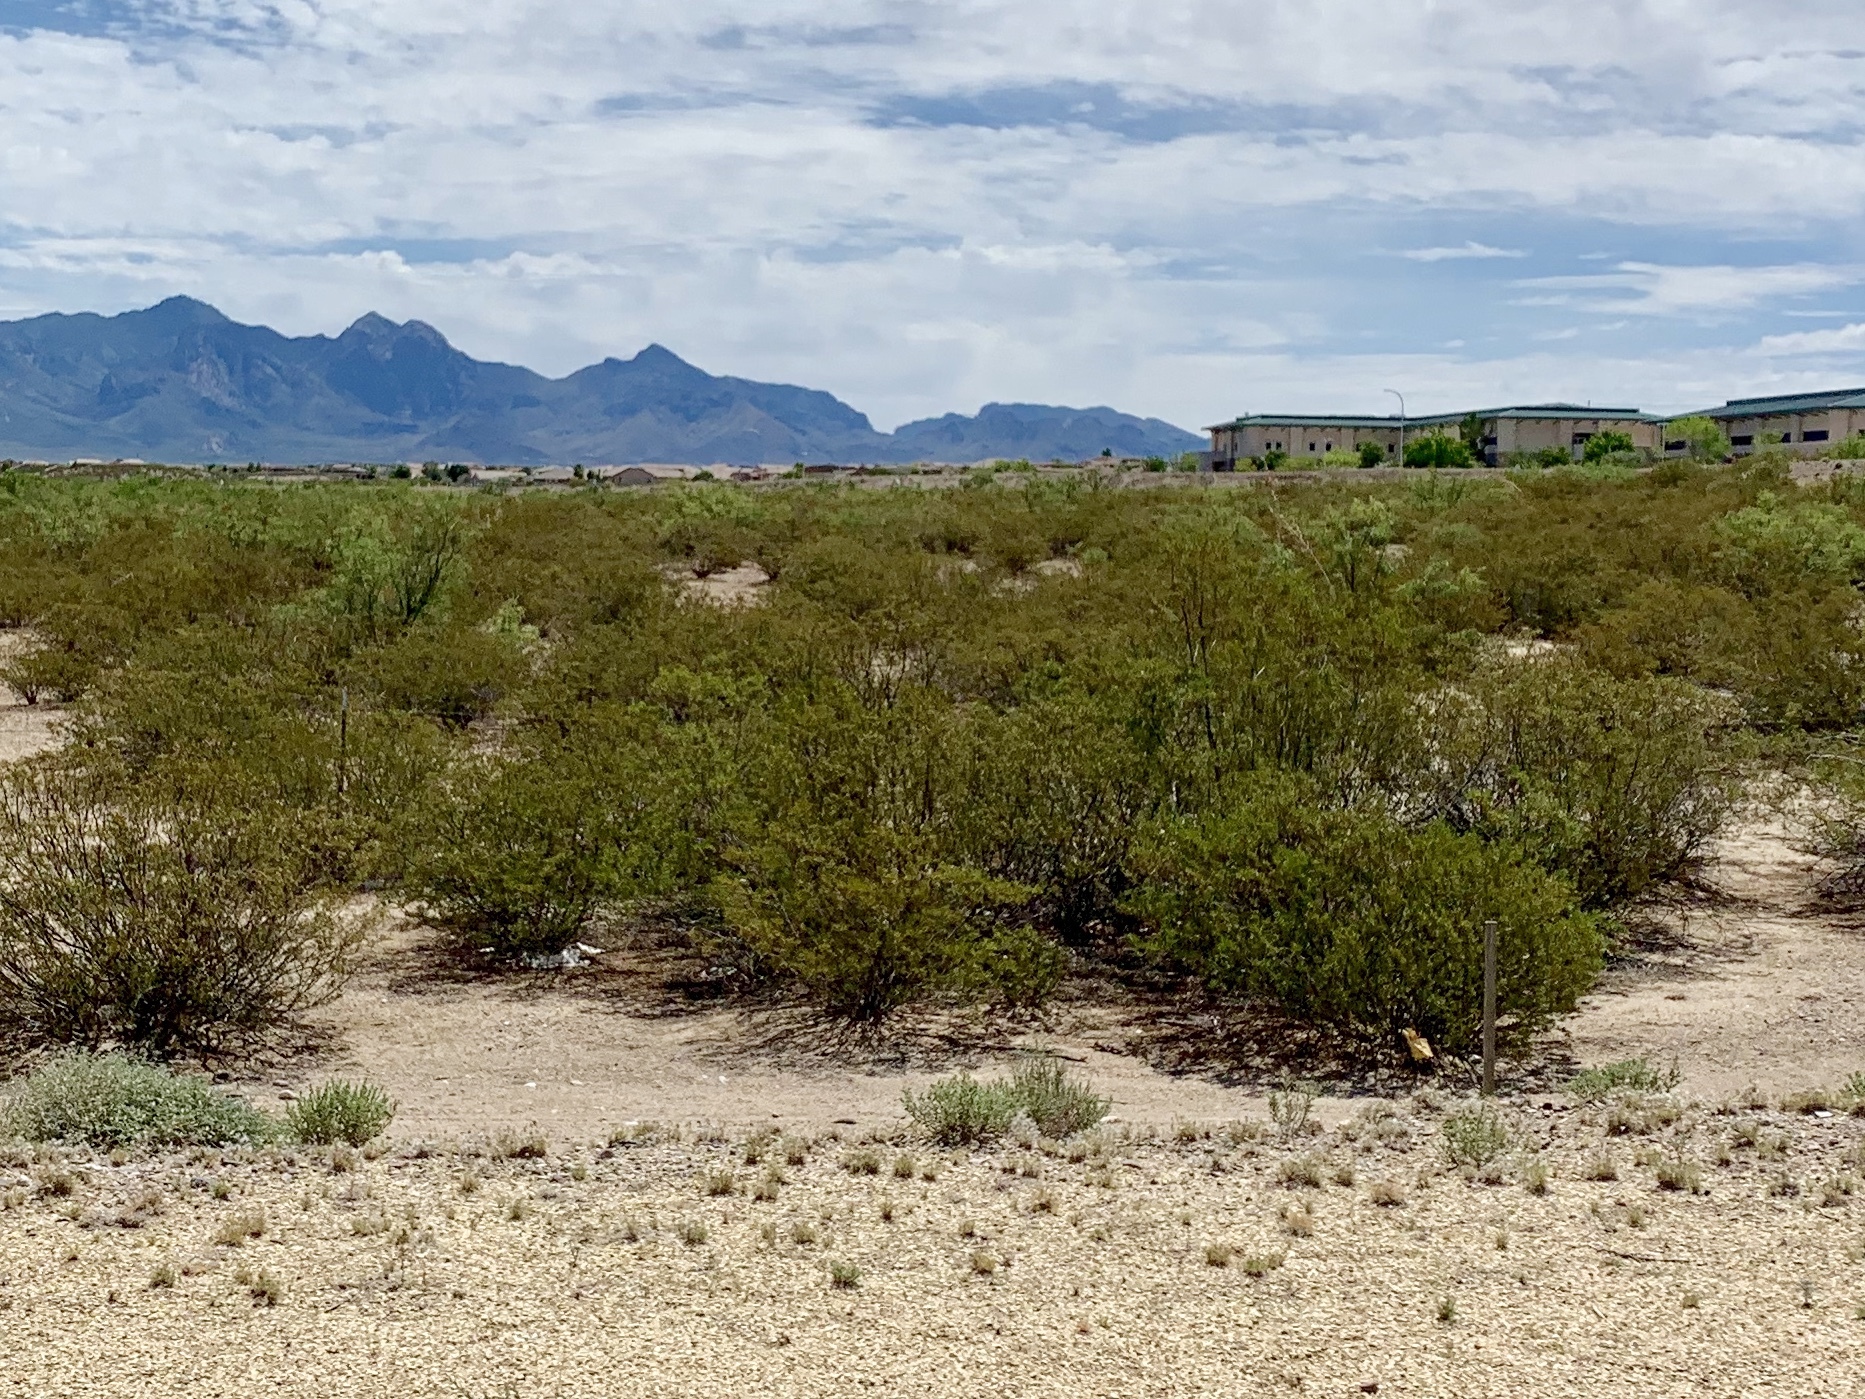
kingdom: Plantae
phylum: Tracheophyta
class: Magnoliopsida
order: Zygophyllales
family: Zygophyllaceae
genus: Larrea
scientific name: Larrea tridentata
